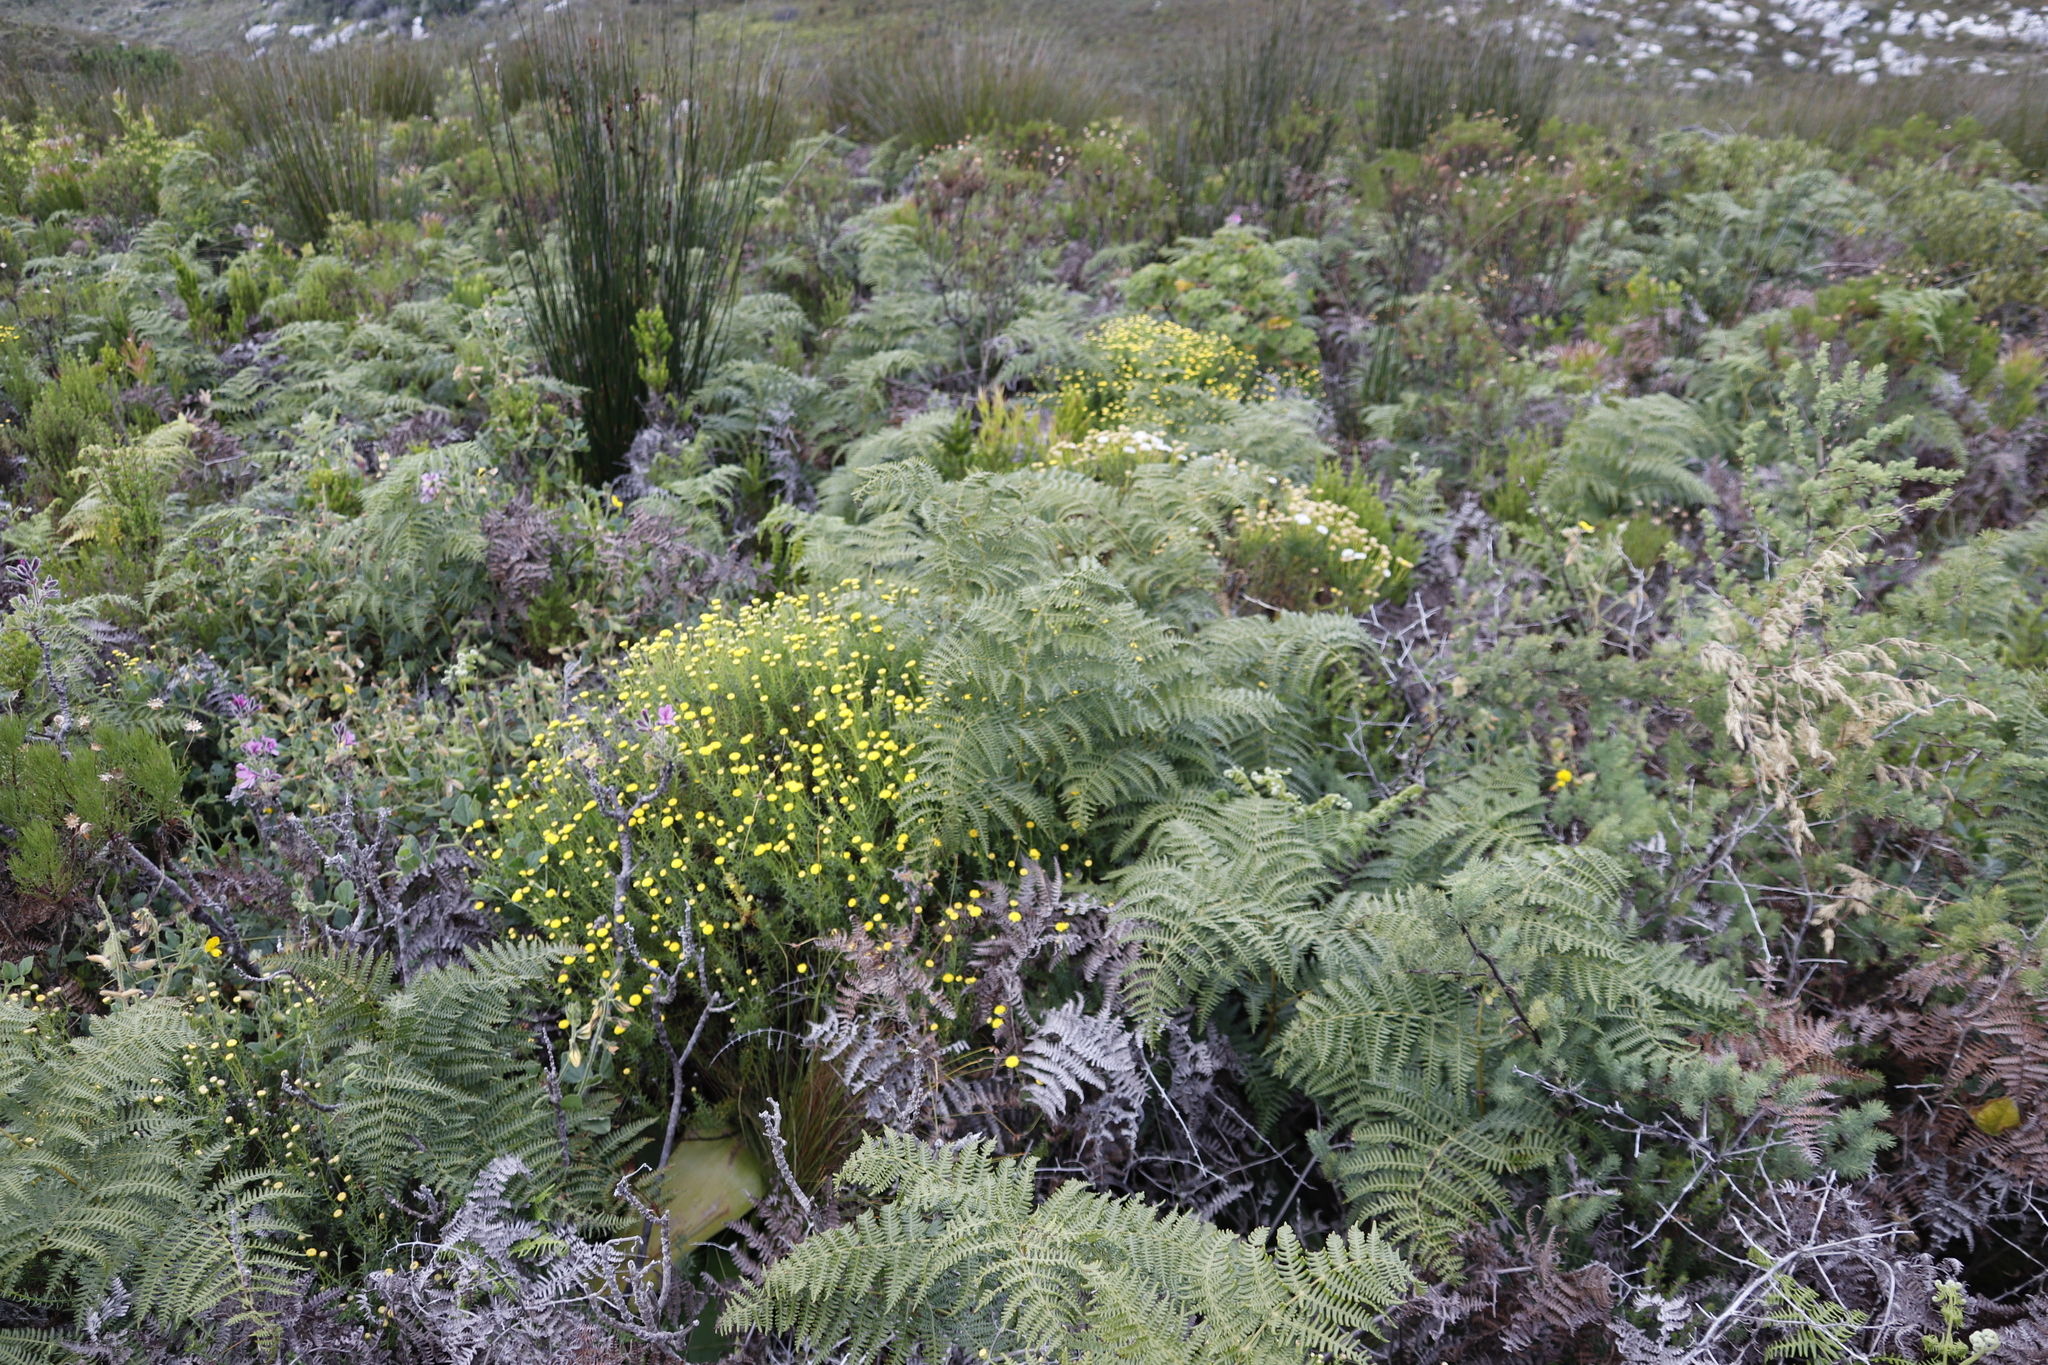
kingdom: Plantae
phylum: Tracheophyta
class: Polypodiopsida
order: Polypodiales
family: Dennstaedtiaceae
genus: Pteridium
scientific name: Pteridium aquilinum
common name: Bracken
